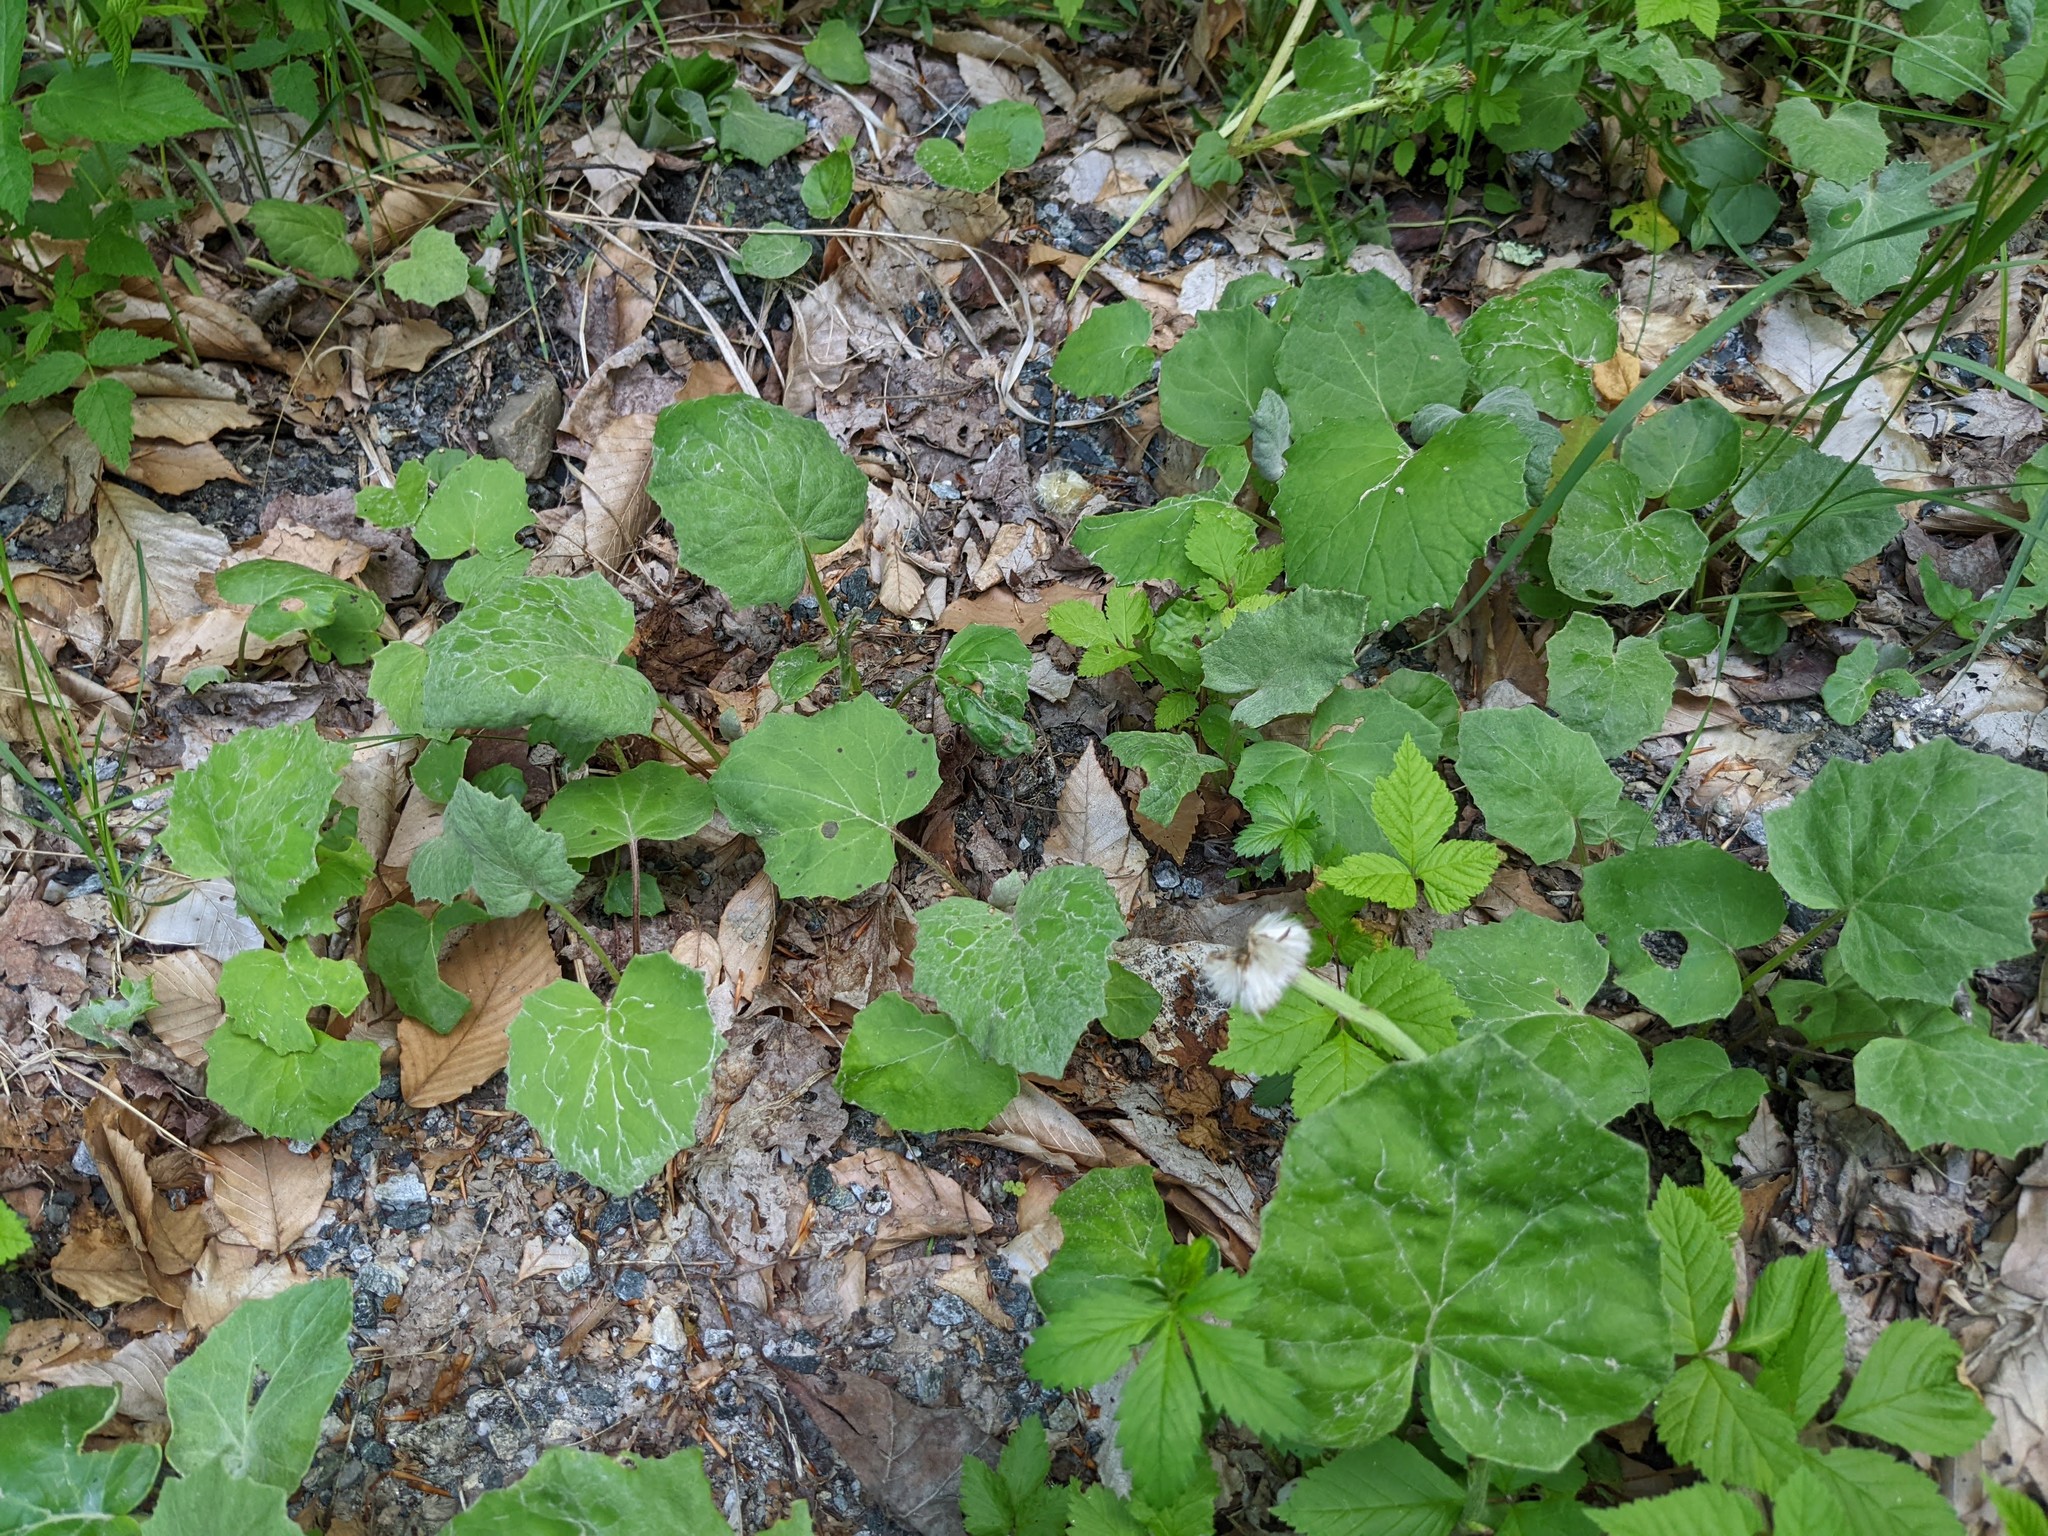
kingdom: Plantae
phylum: Tracheophyta
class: Magnoliopsida
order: Asterales
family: Asteraceae
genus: Tussilago
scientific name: Tussilago farfara
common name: Coltsfoot
